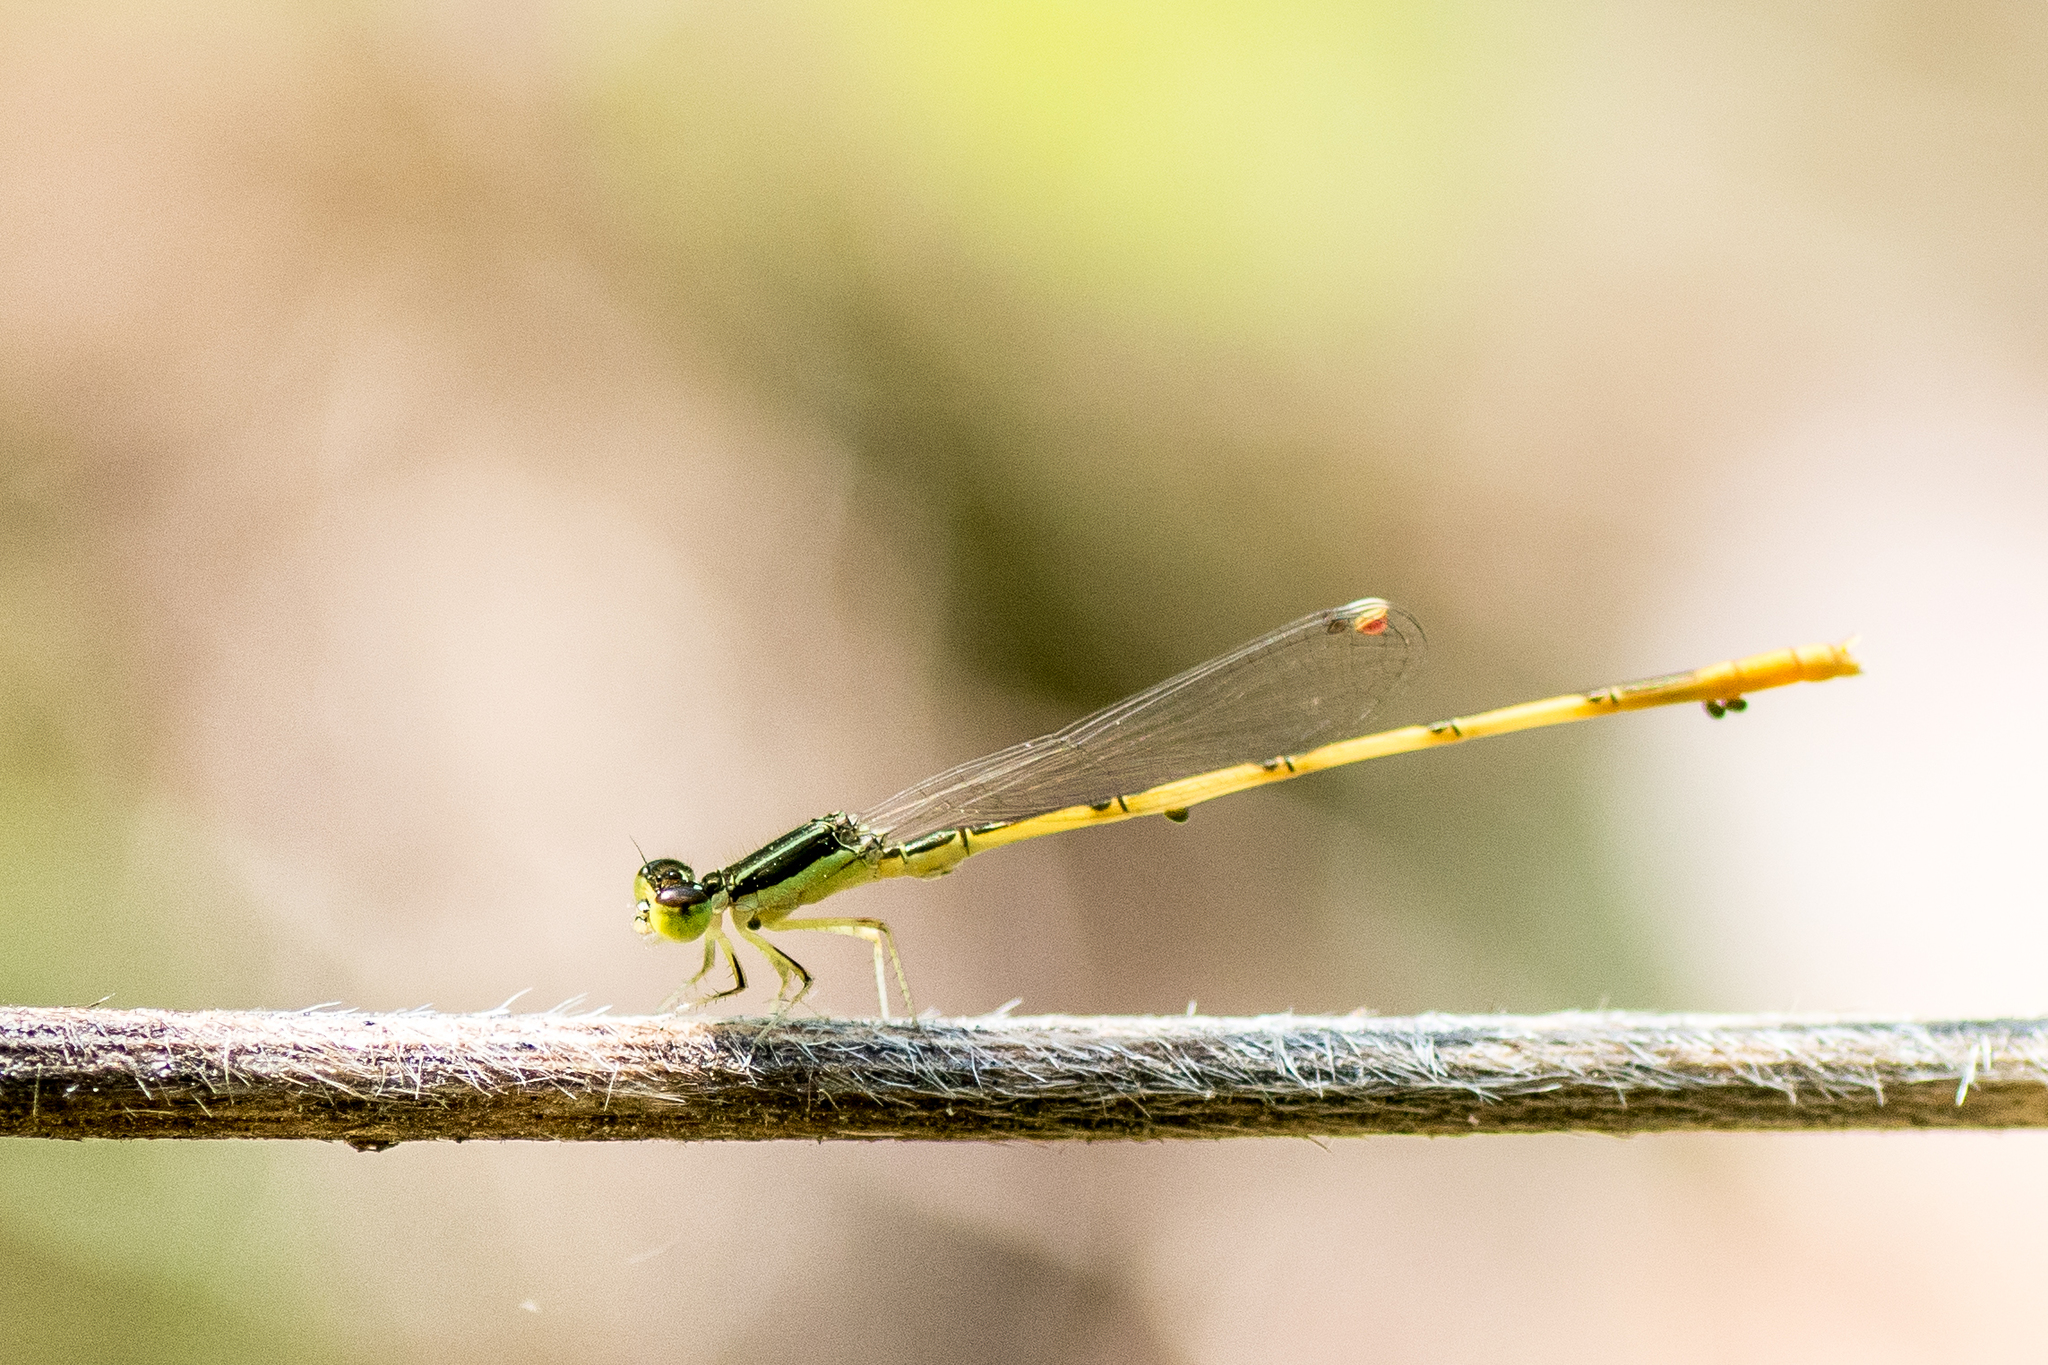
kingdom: Animalia
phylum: Arthropoda
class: Insecta
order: Odonata
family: Coenagrionidae
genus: Ischnura
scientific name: Ischnura hastata
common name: Citrine forktail
